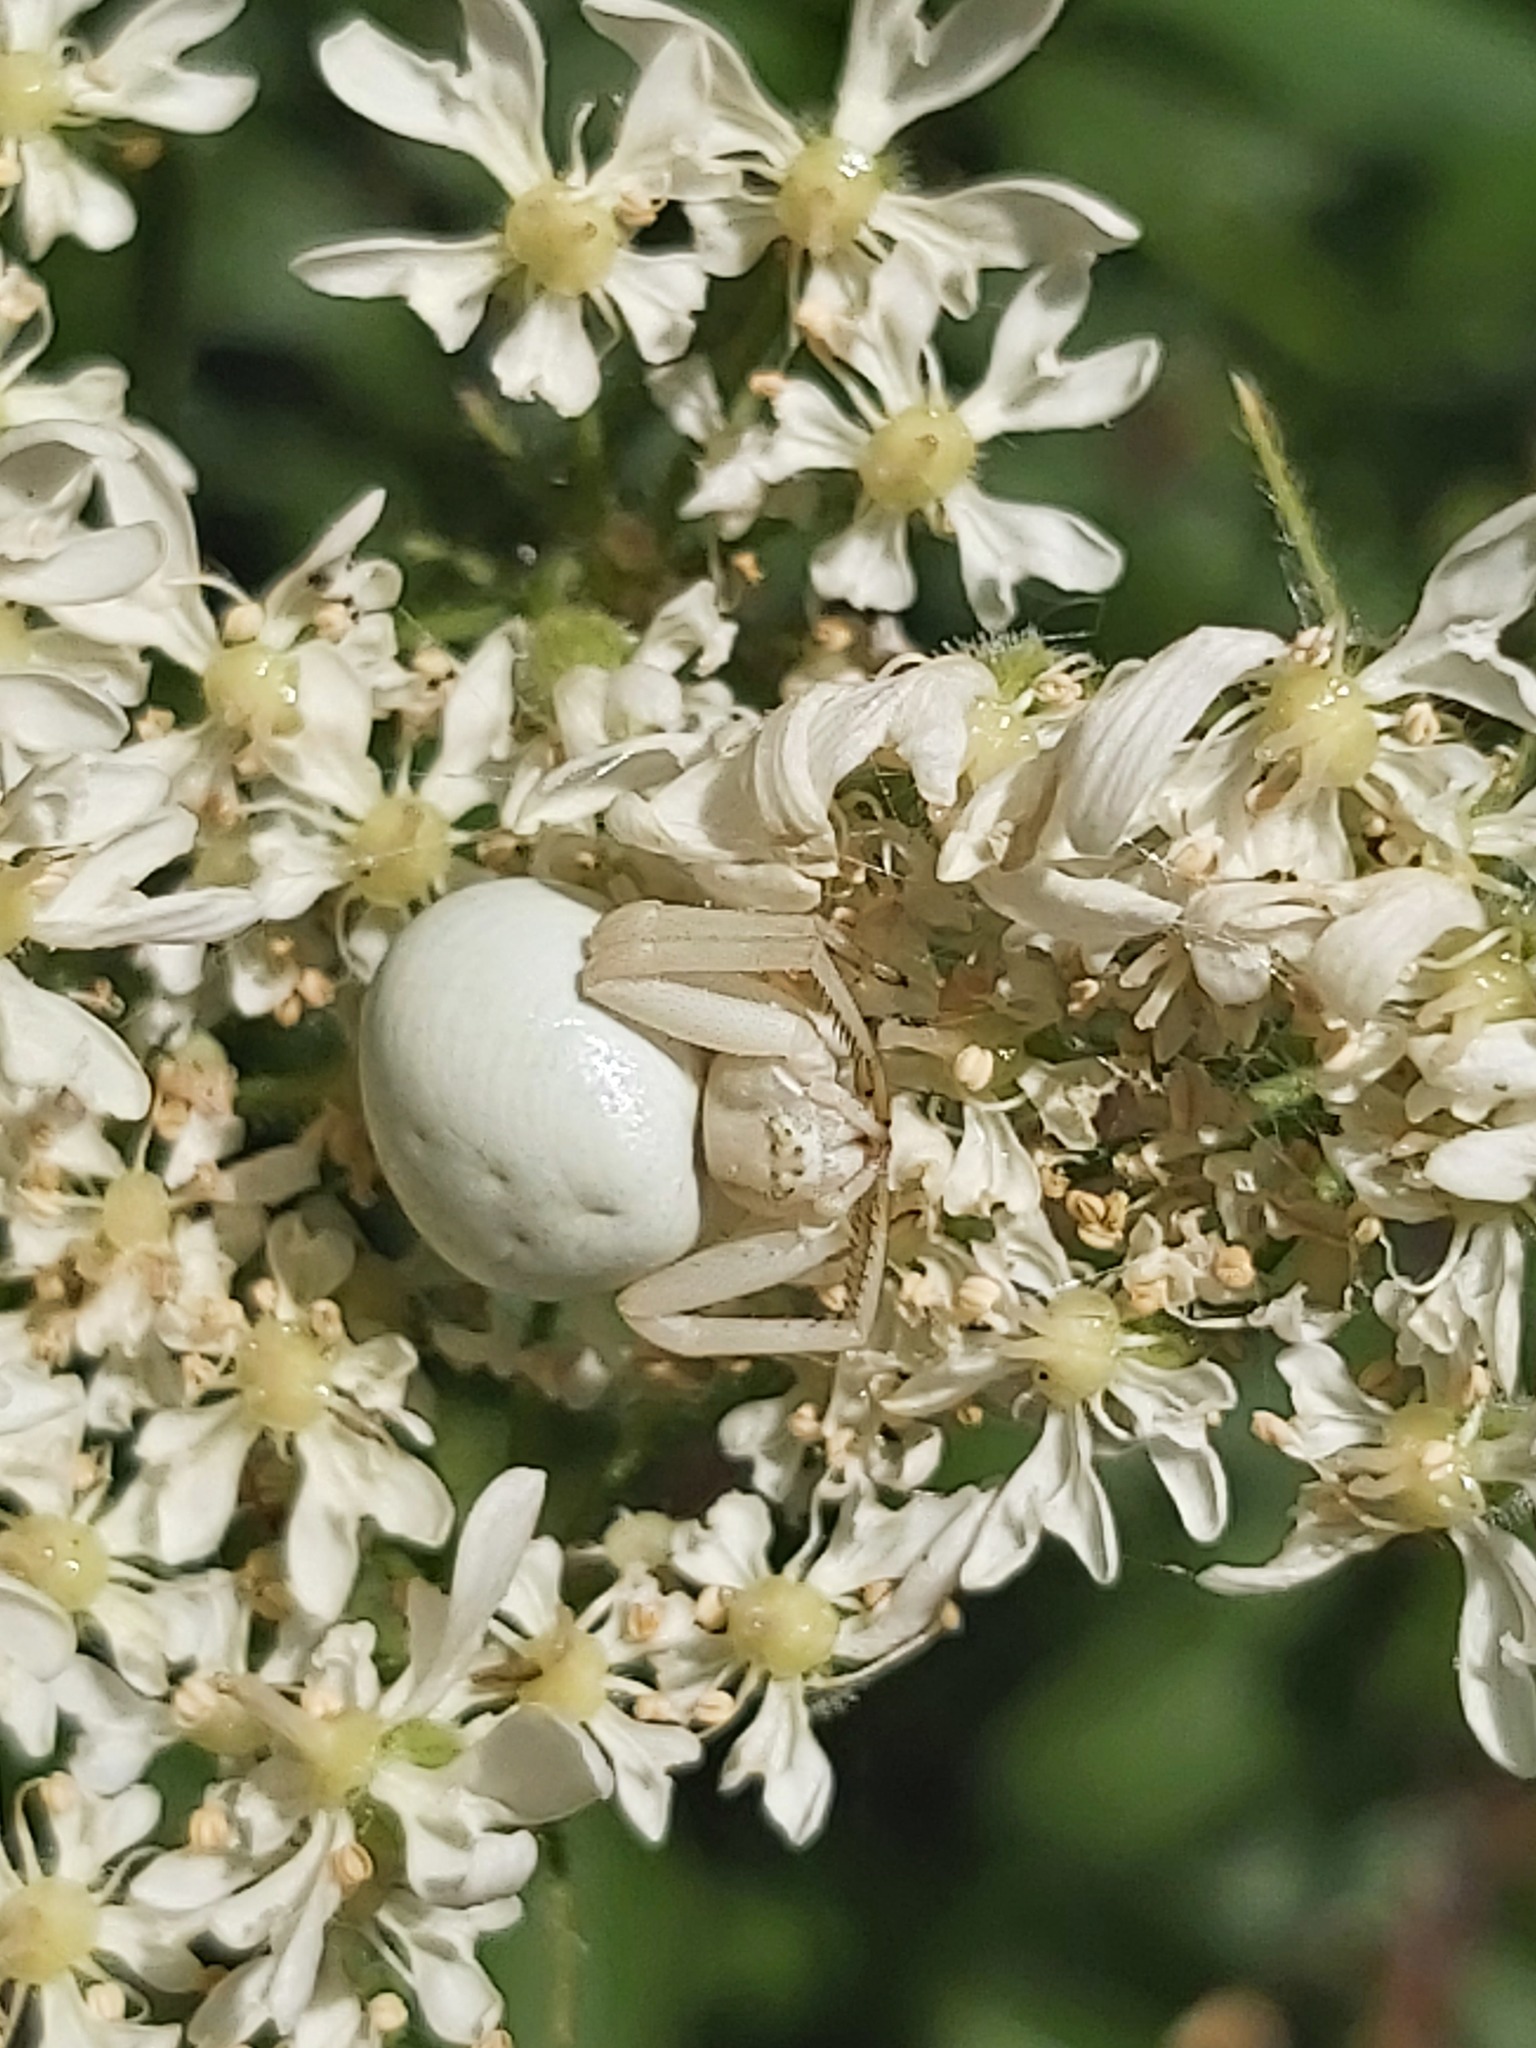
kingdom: Animalia
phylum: Arthropoda
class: Arachnida
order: Araneae
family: Thomisidae
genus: Misumena
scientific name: Misumena vatia
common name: Goldenrod crab spider
